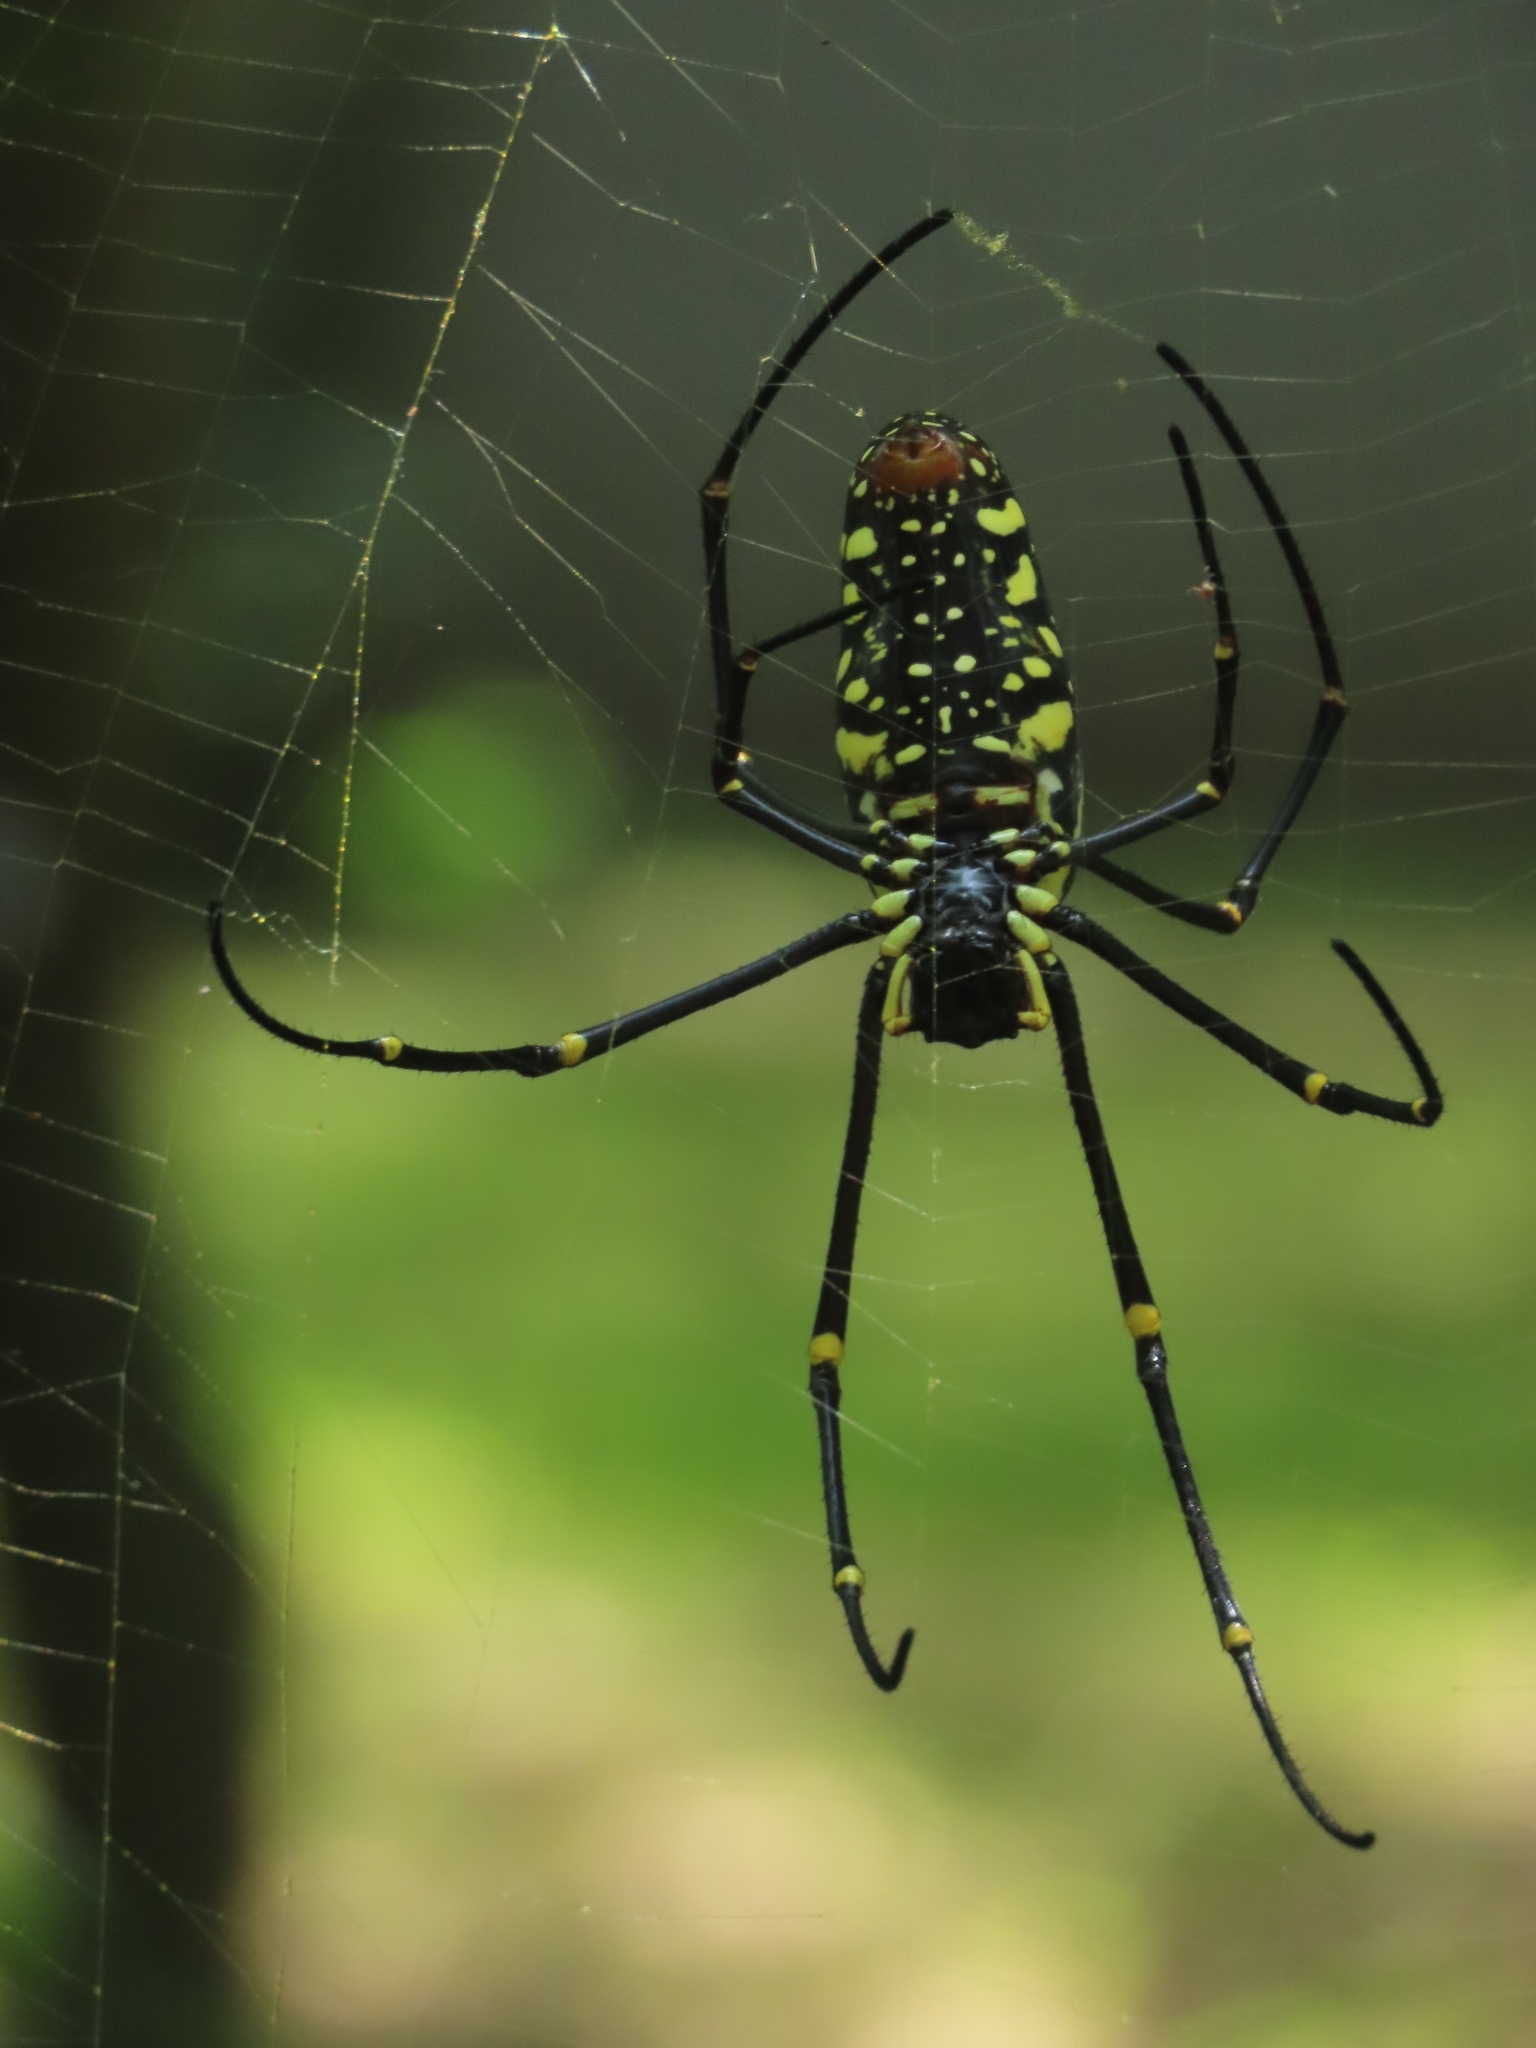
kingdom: Animalia
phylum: Arthropoda
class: Arachnida
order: Araneae
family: Araneidae
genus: Nephila
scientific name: Nephila pilipes
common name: Giant golden orb weaver
